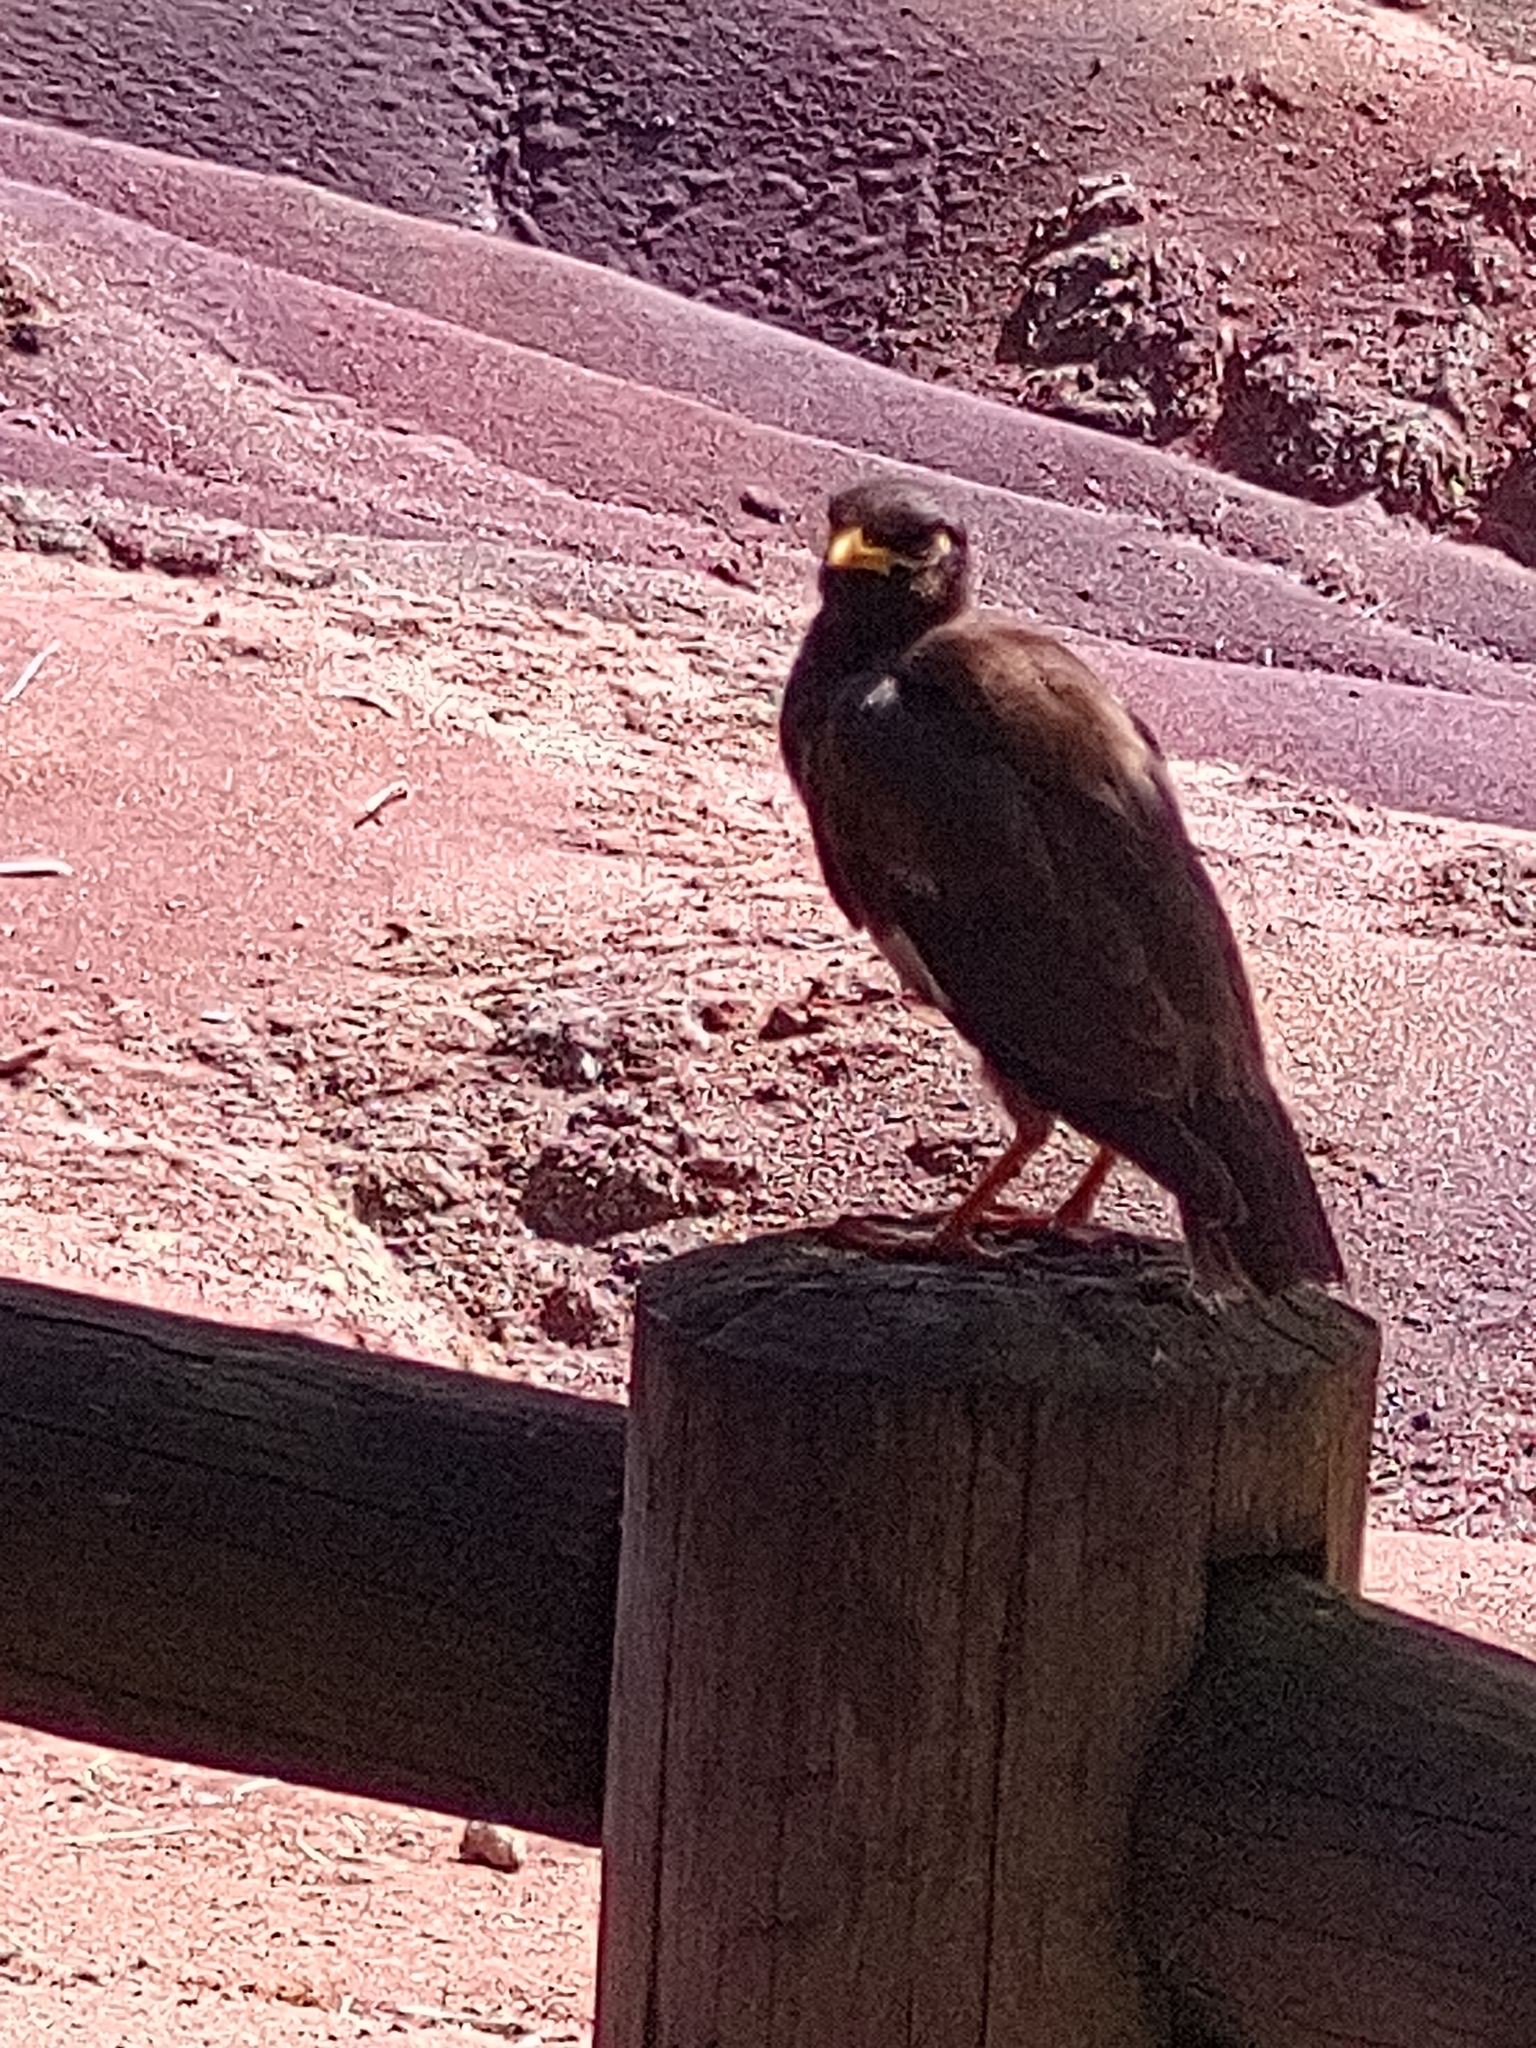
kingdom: Animalia
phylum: Chordata
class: Aves
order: Passeriformes
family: Sturnidae
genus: Acridotheres
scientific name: Acridotheres tristis
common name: Common myna
